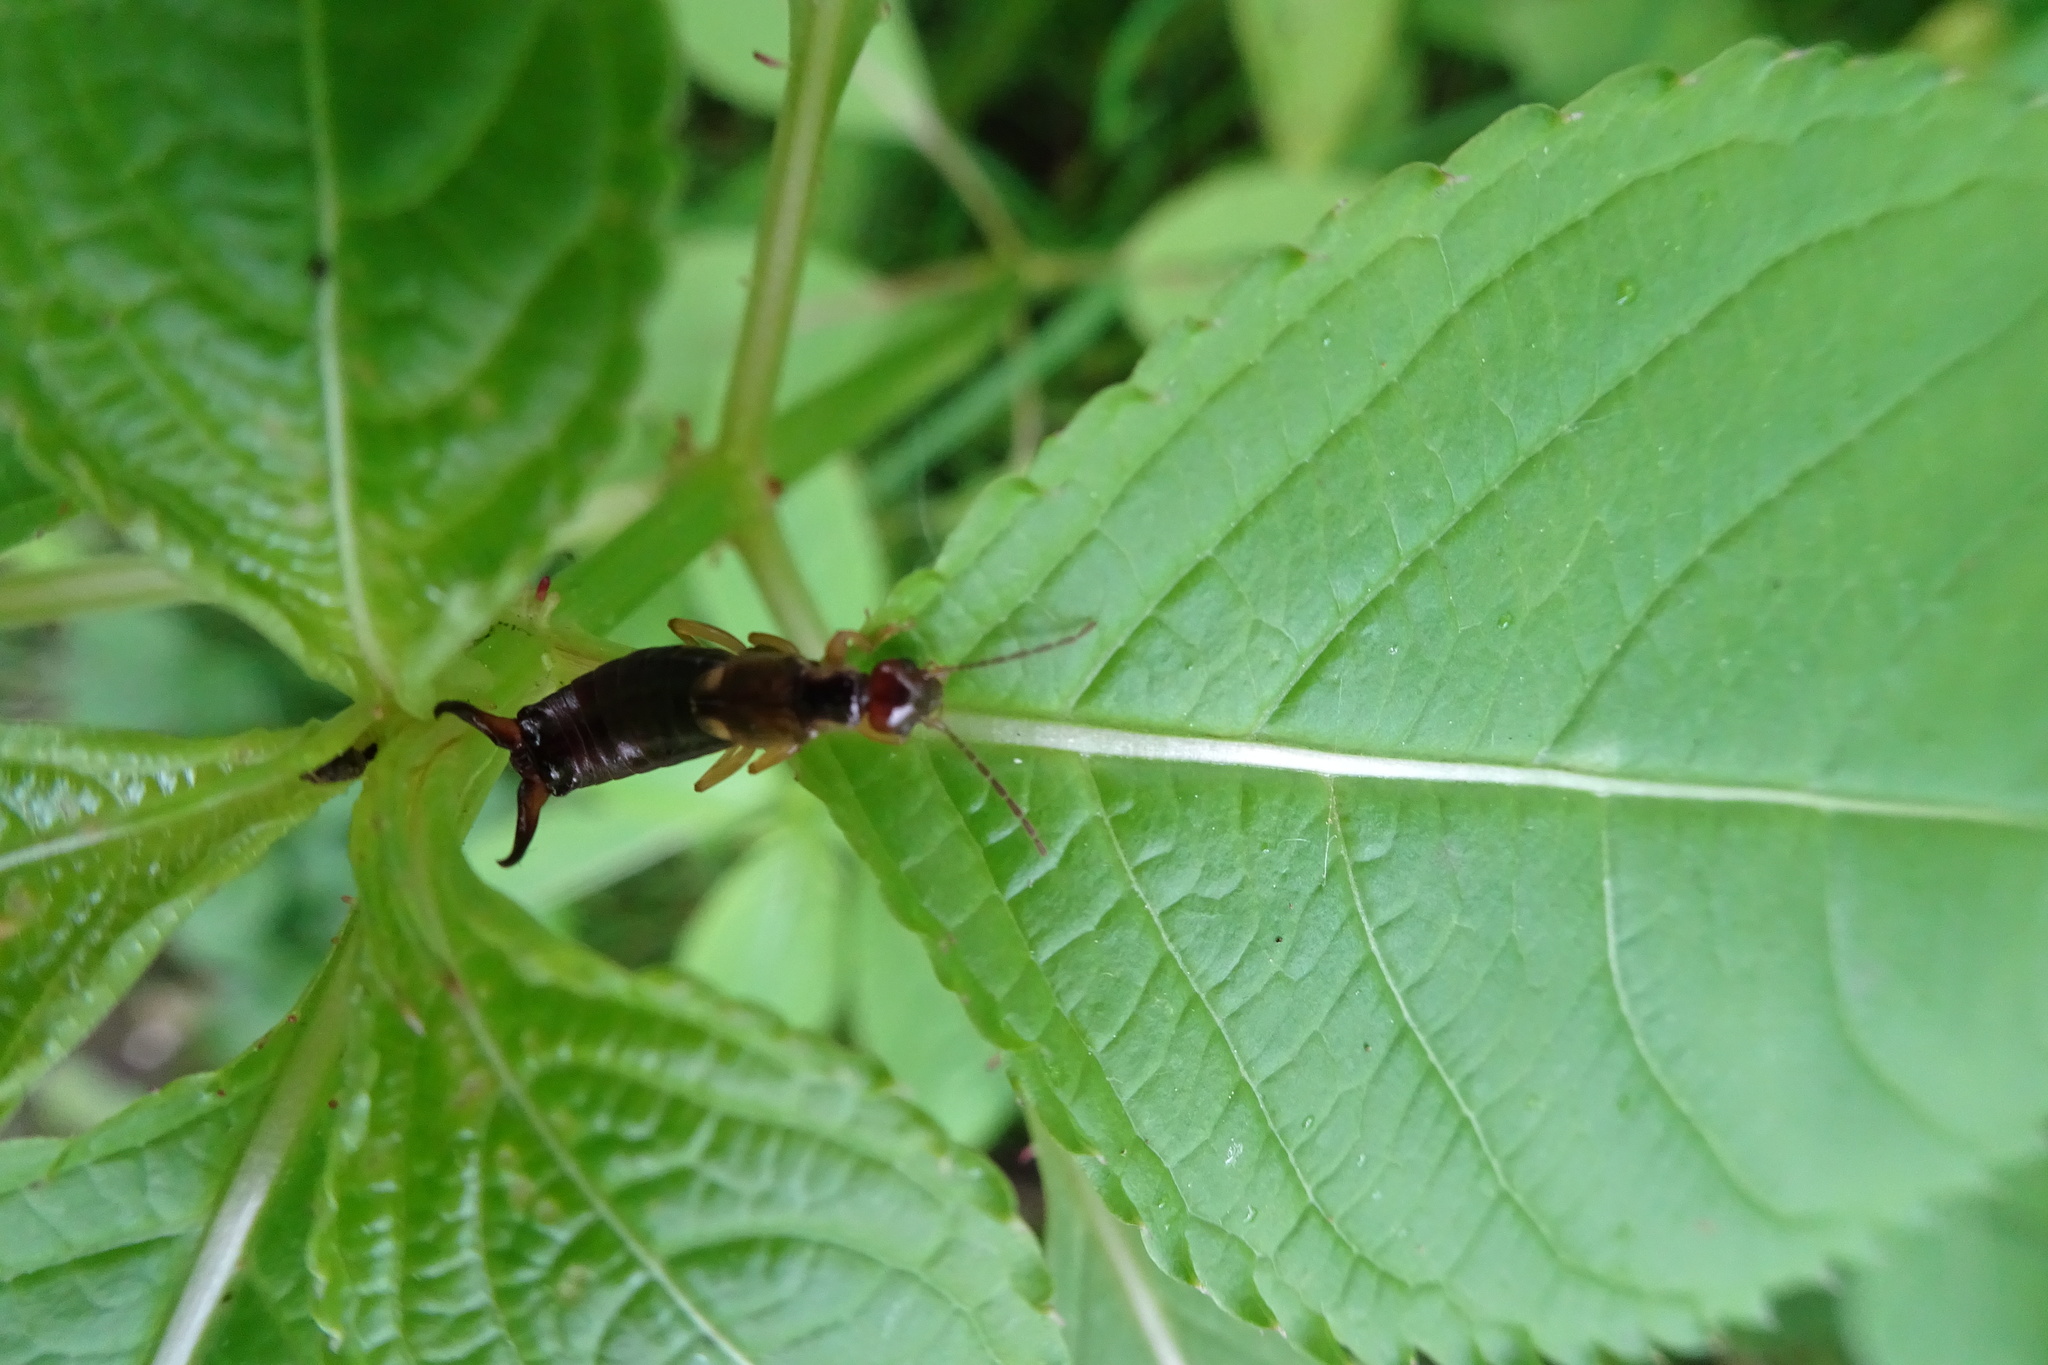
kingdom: Animalia
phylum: Arthropoda
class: Insecta
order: Dermaptera
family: Forficulidae
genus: Forficula
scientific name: Forficula
